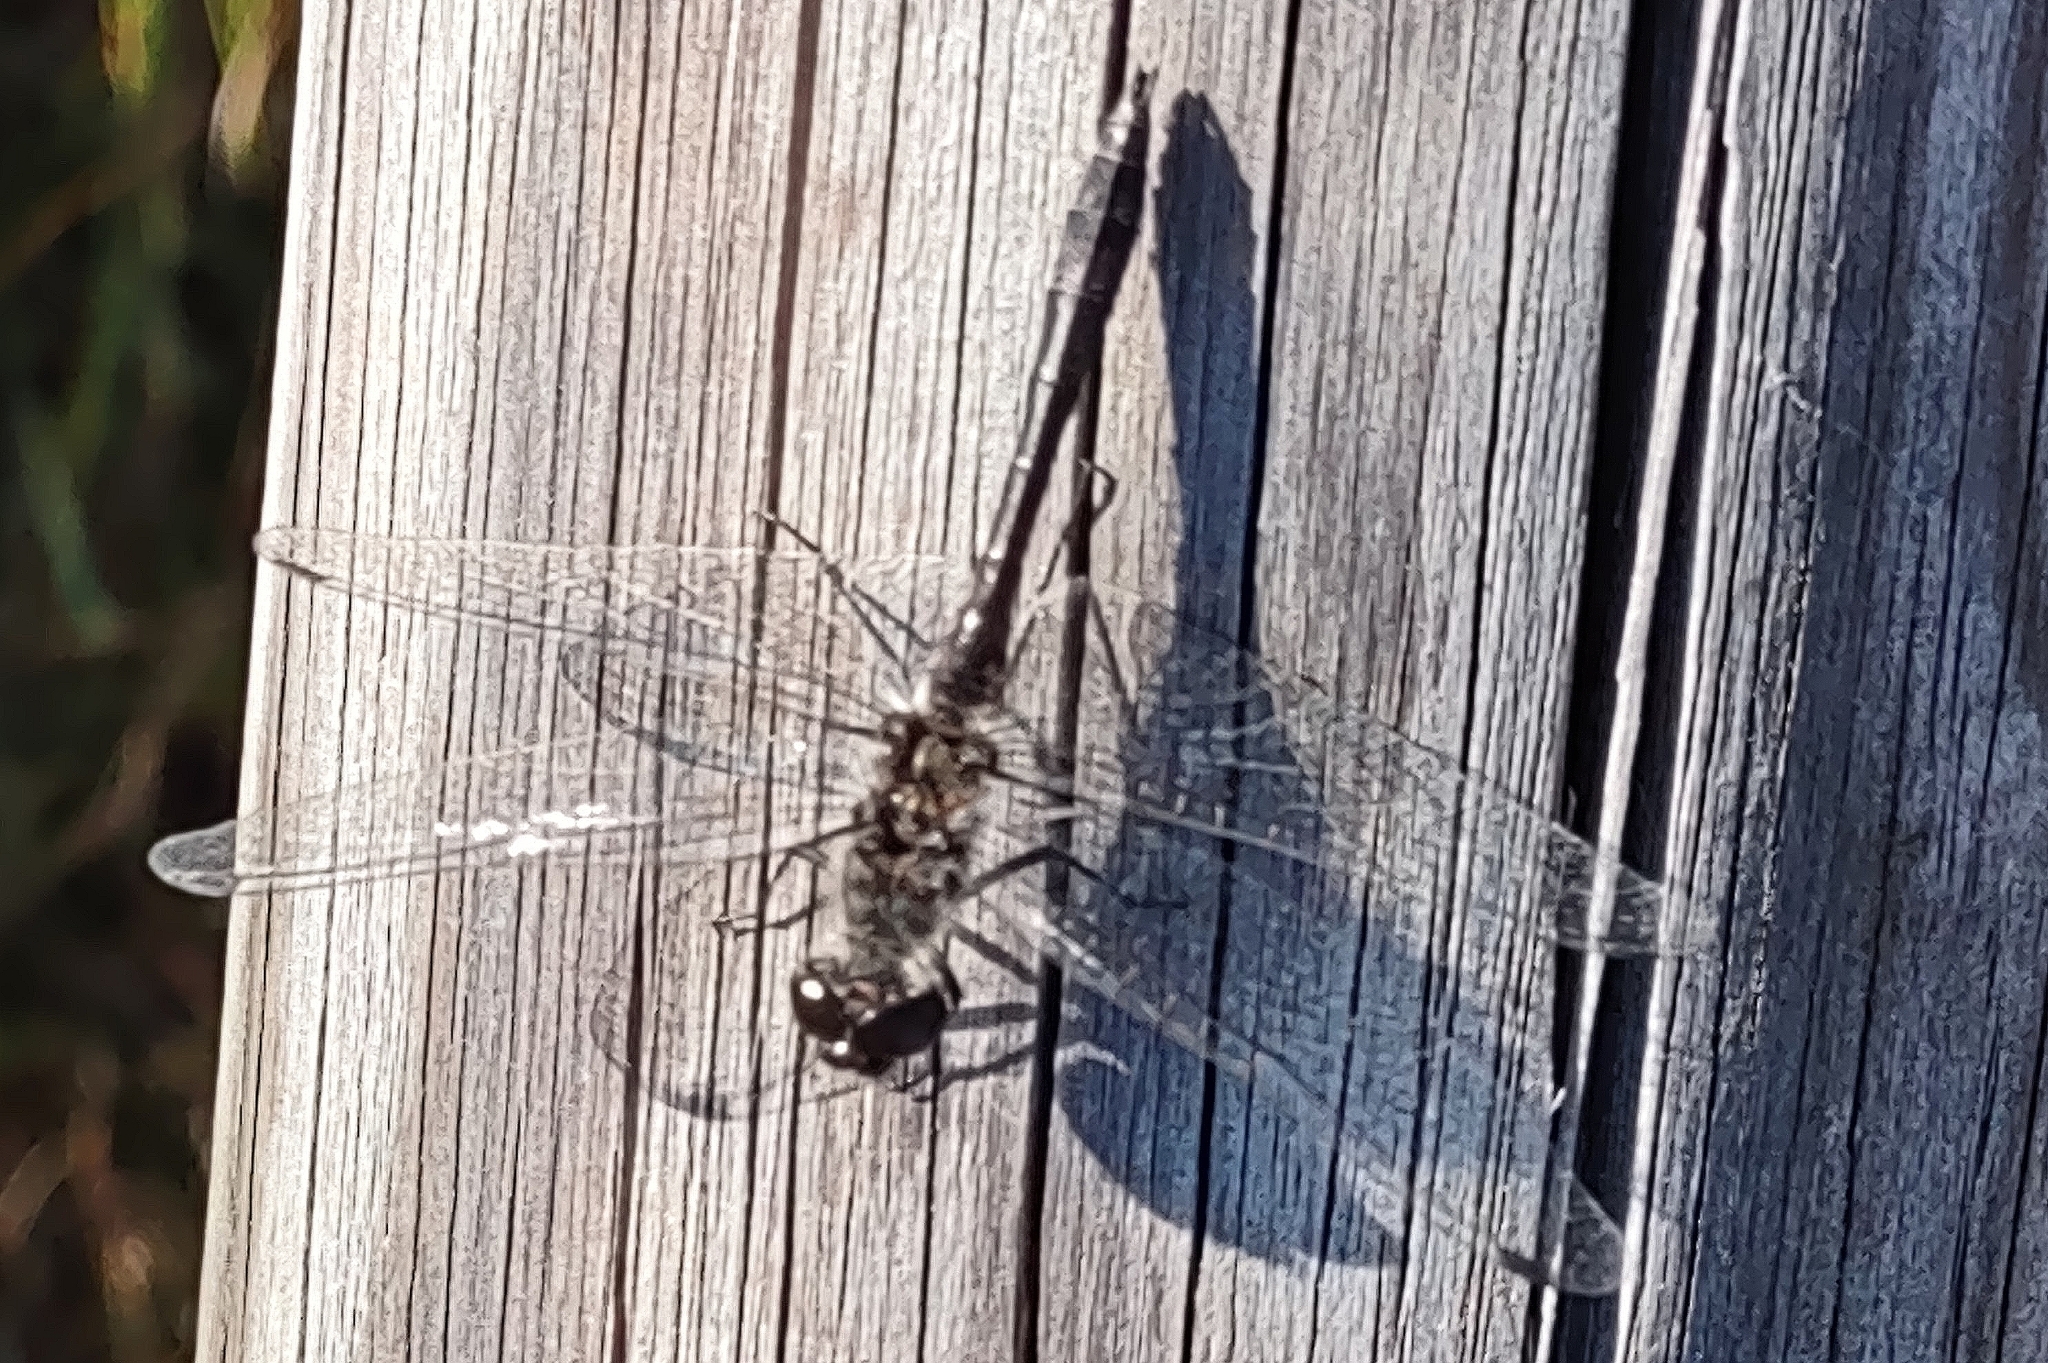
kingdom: Animalia
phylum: Arthropoda
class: Insecta
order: Odonata
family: Libellulidae
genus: Sympetrum
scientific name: Sympetrum danae
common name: Black darter
